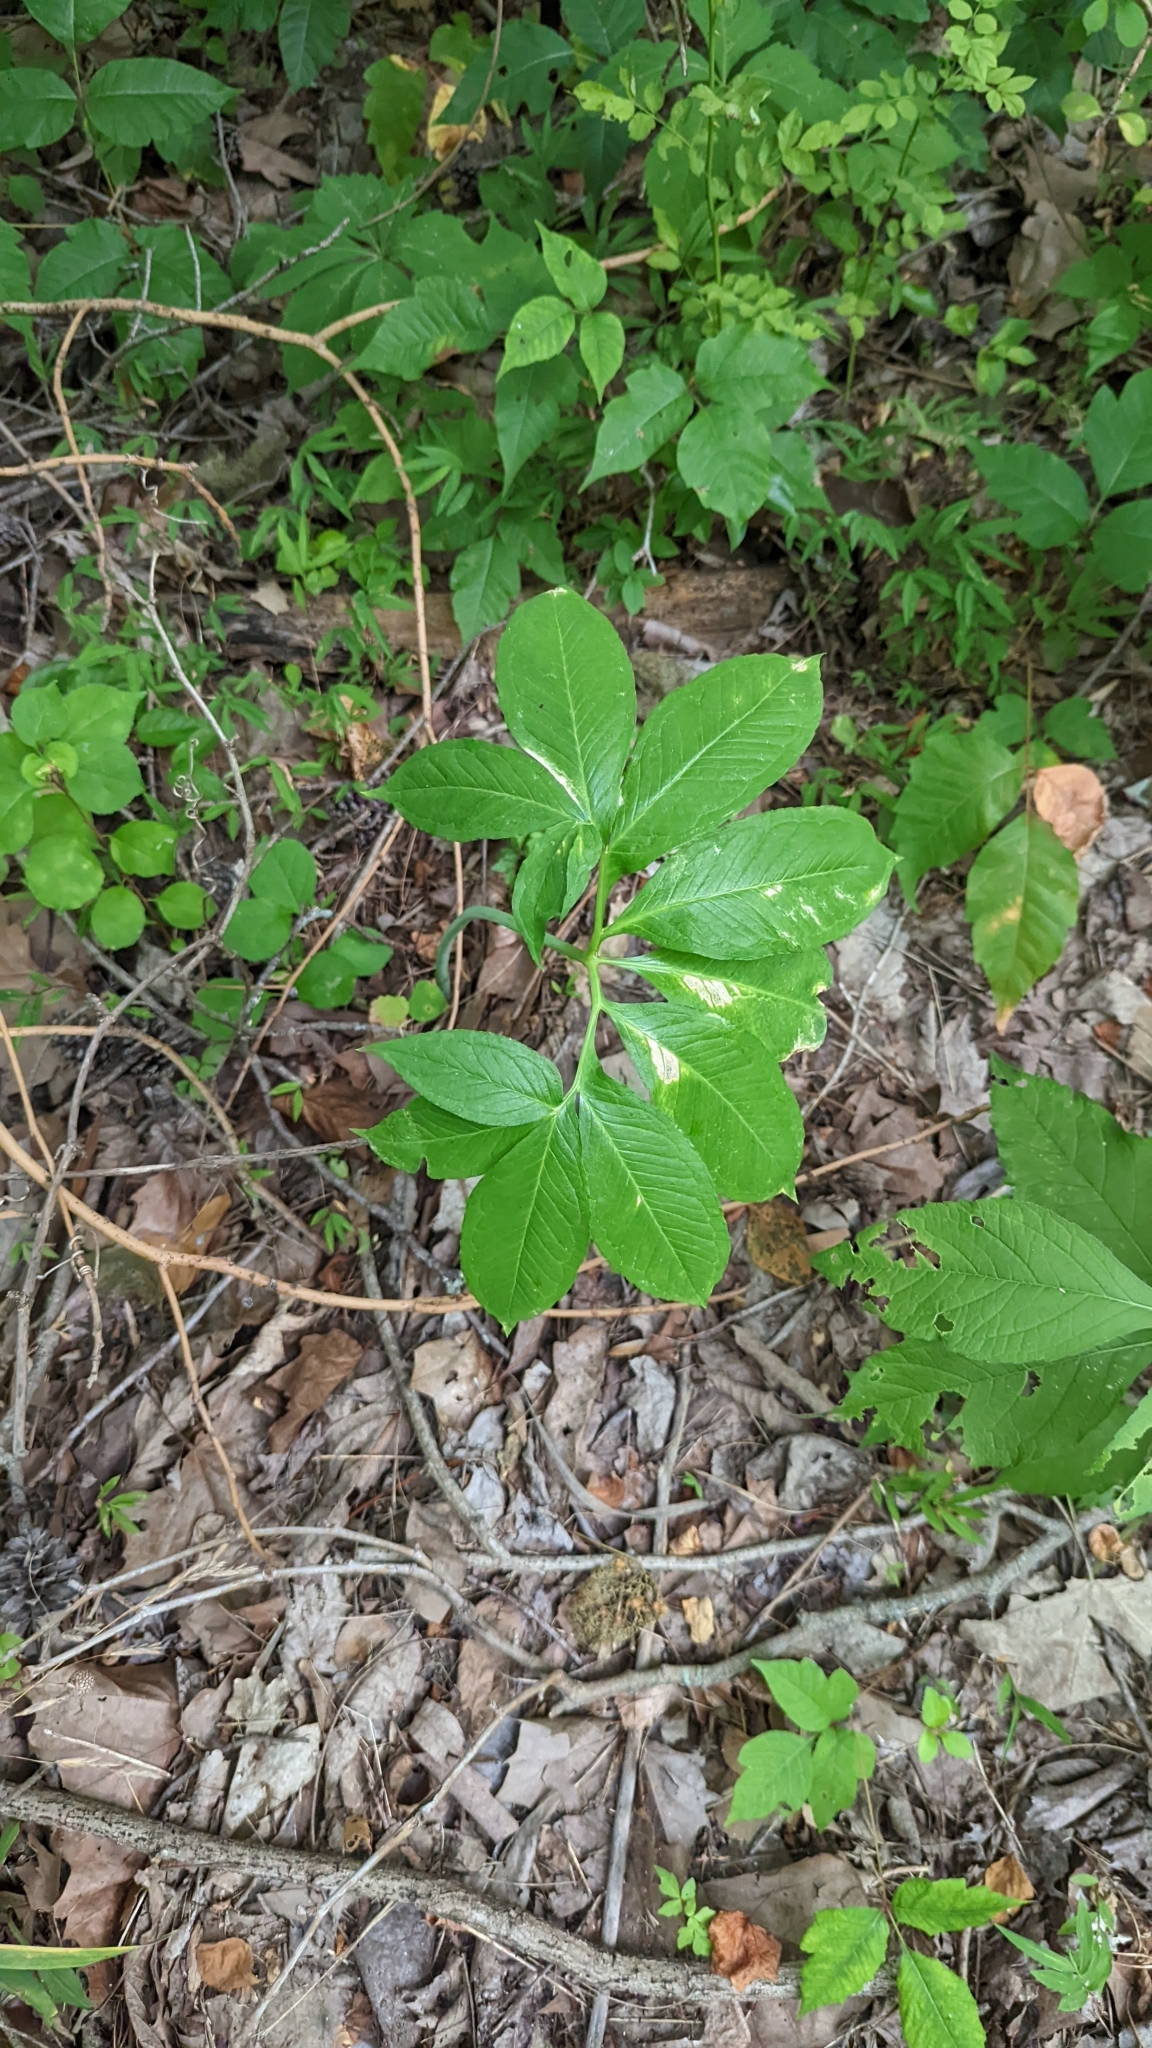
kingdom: Plantae
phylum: Tracheophyta
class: Liliopsida
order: Alismatales
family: Araceae
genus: Arisaema
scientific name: Arisaema dracontium
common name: Dragon-arum
